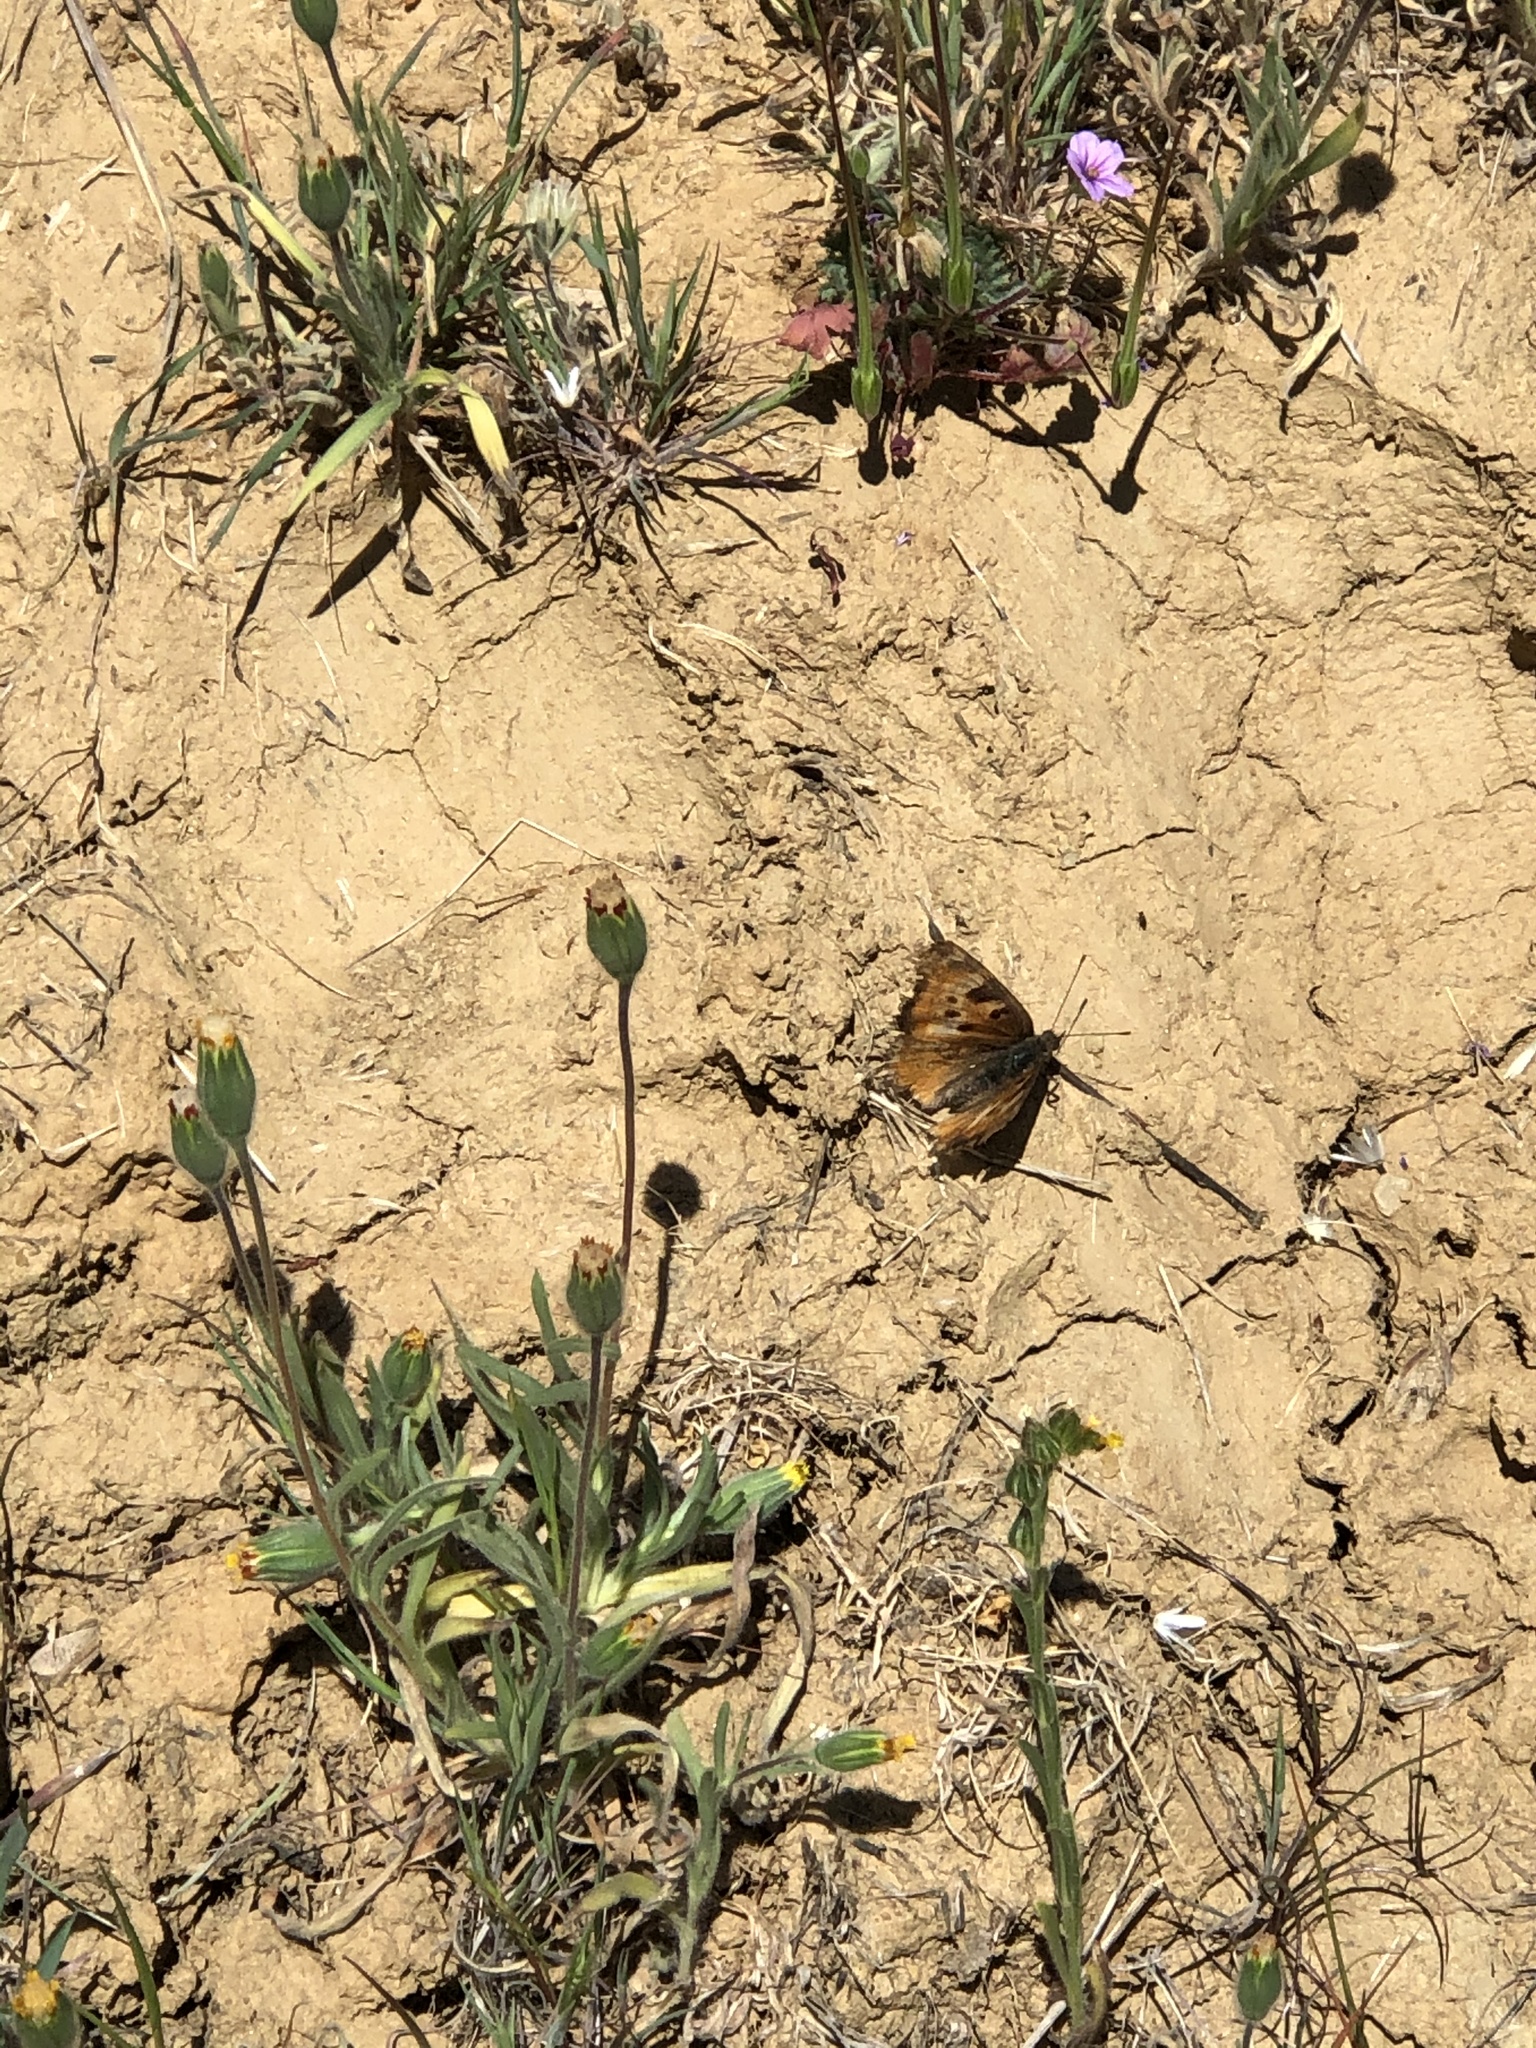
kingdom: Animalia
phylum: Arthropoda
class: Insecta
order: Lepidoptera
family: Nymphalidae
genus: Nymphalis
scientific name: Nymphalis californica
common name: California tortoiseshell
